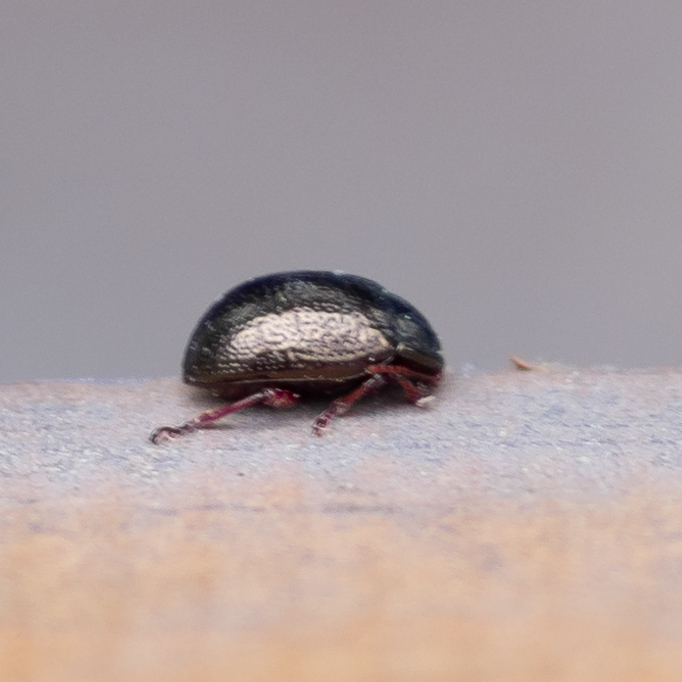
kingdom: Animalia
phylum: Arthropoda
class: Insecta
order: Coleoptera
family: Chrysomelidae
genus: Chrysolina
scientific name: Chrysolina bankii
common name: Leaf beetle
